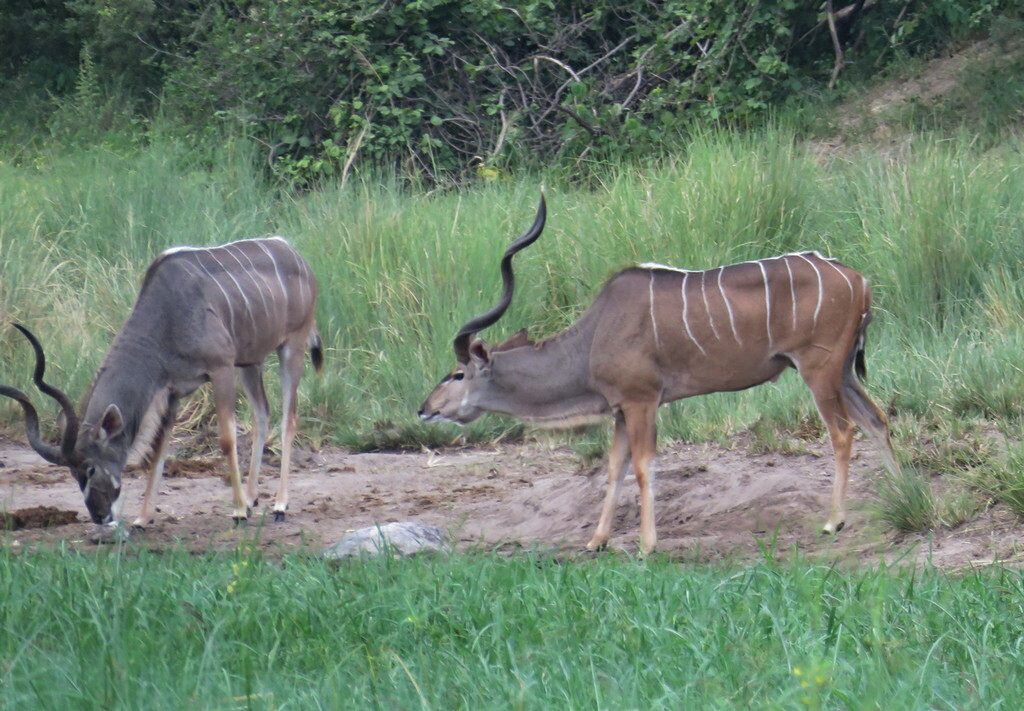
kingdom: Animalia
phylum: Chordata
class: Mammalia
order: Artiodactyla
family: Bovidae
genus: Tragelaphus
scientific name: Tragelaphus strepsiceros
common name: Greater kudu
